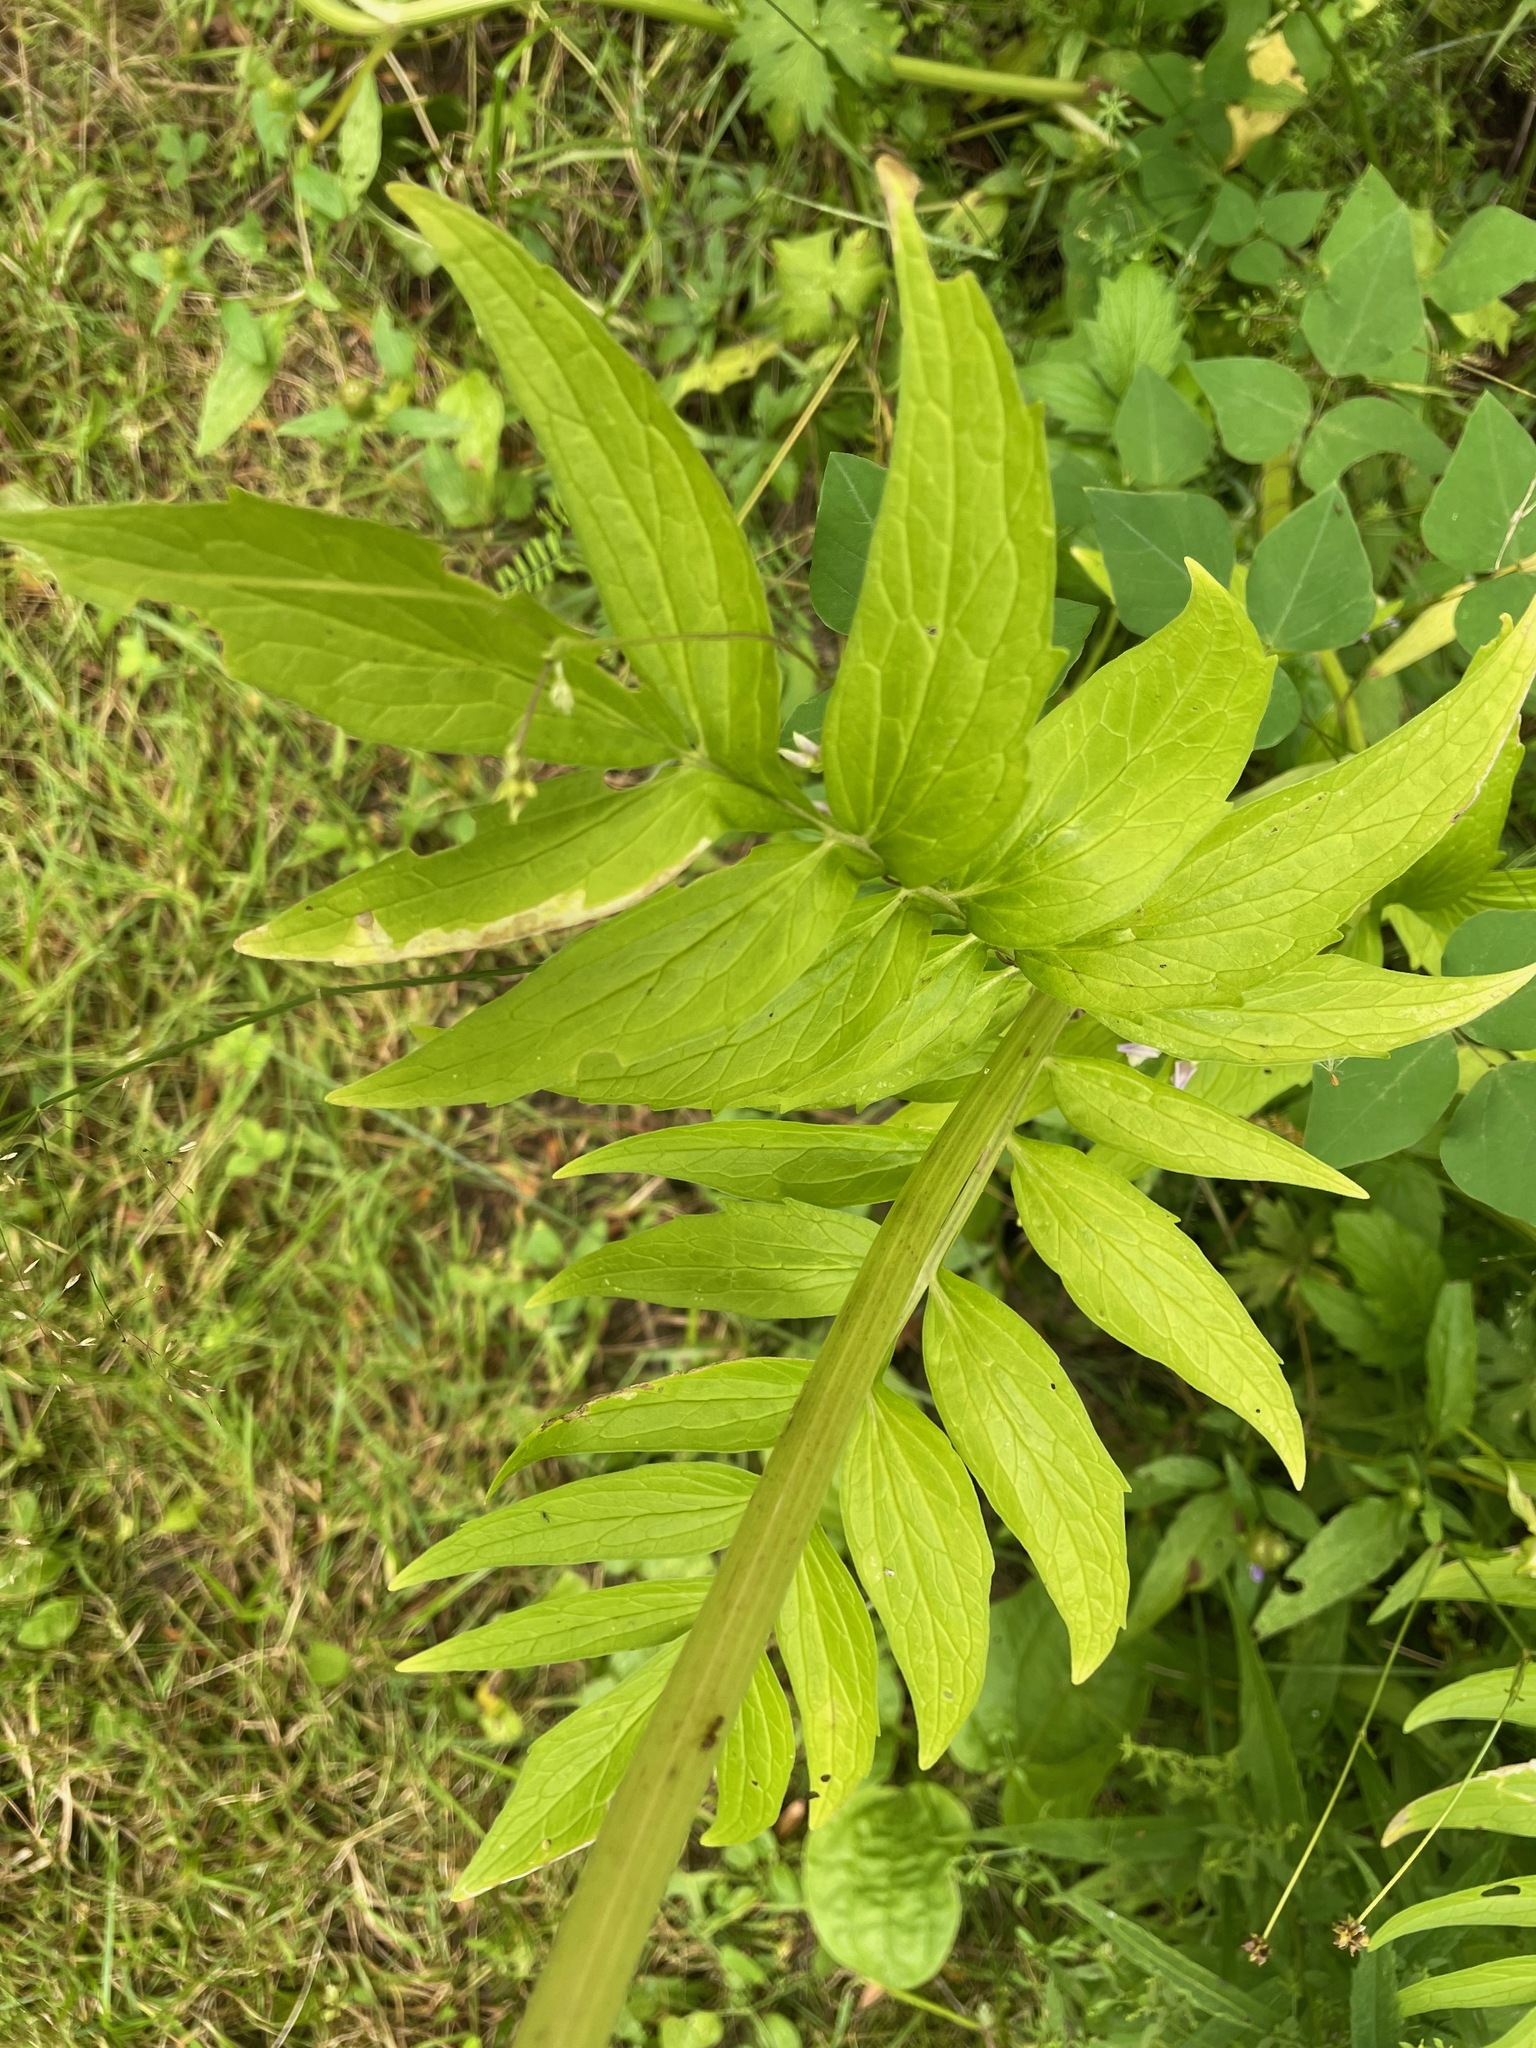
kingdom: Plantae
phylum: Tracheophyta
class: Magnoliopsida
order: Dipsacales
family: Caprifoliaceae
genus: Valeriana
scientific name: Valeriana officinalis
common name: Common valerian
